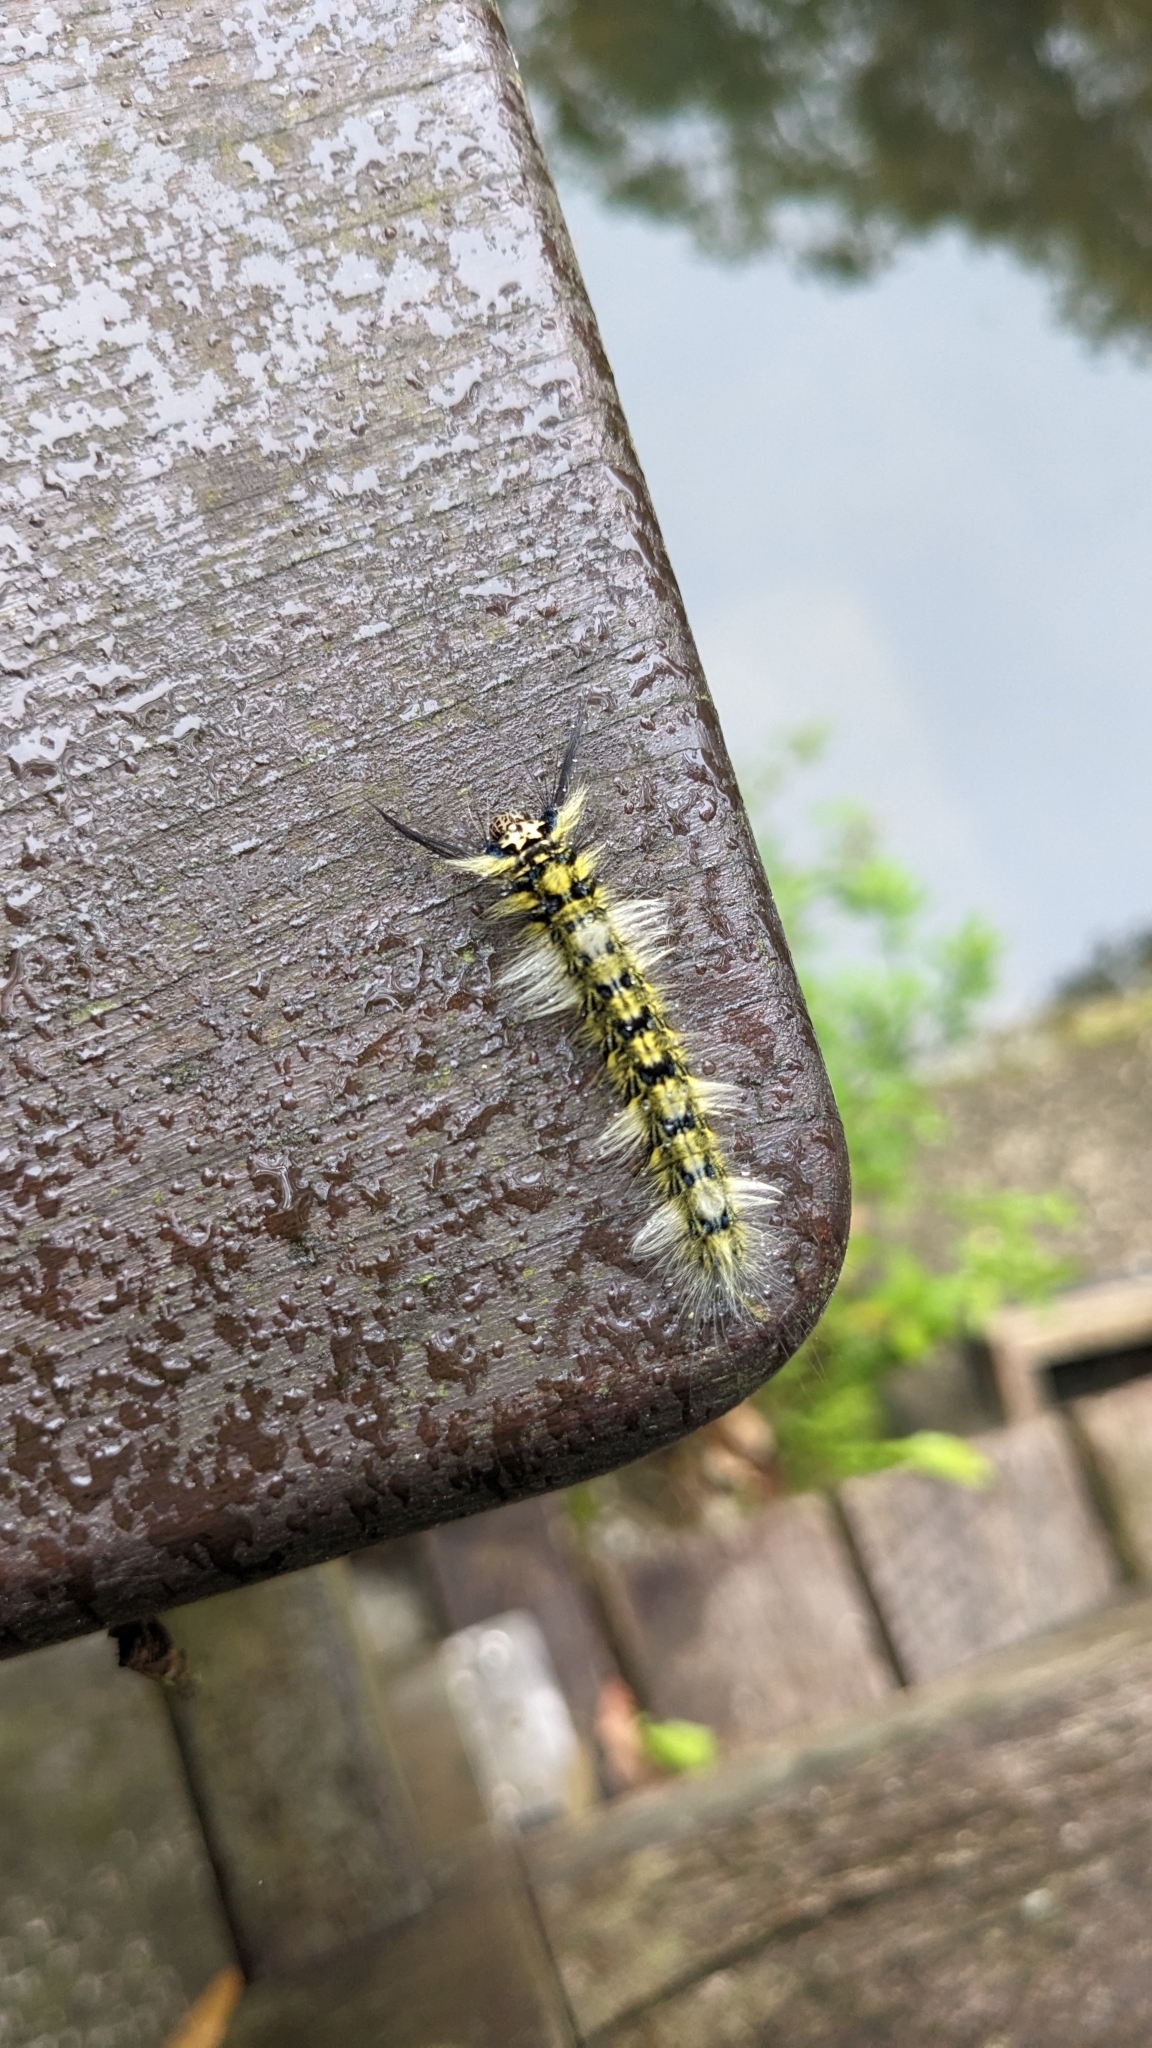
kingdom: Animalia
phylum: Arthropoda
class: Insecta
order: Lepidoptera
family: Lasiocampidae
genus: Trabala
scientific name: Trabala vishnou
